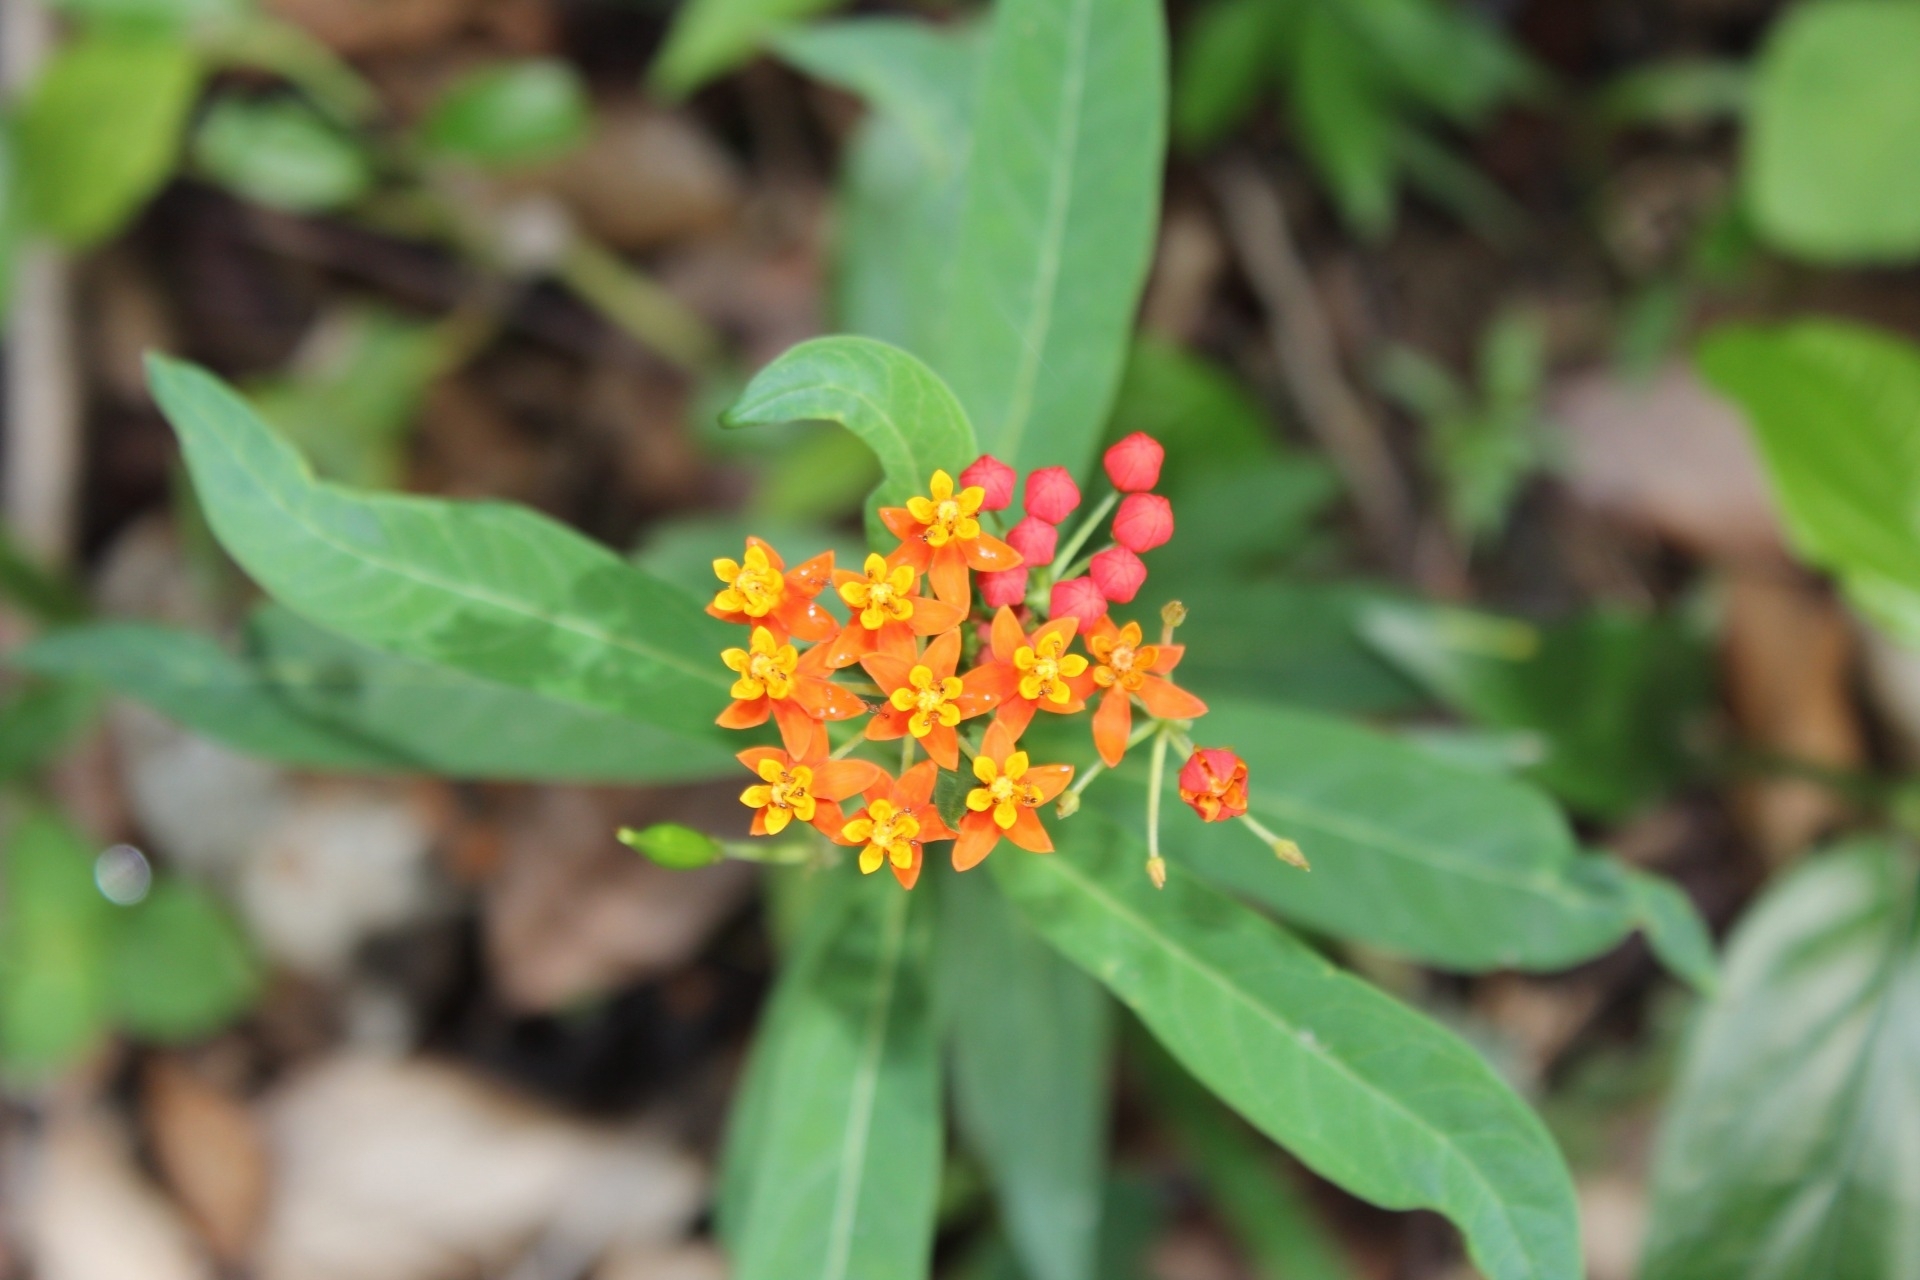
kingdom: Plantae
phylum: Tracheophyta
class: Magnoliopsida
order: Gentianales
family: Apocynaceae
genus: Asclepias
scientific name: Asclepias curassavica
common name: Bloodflower
